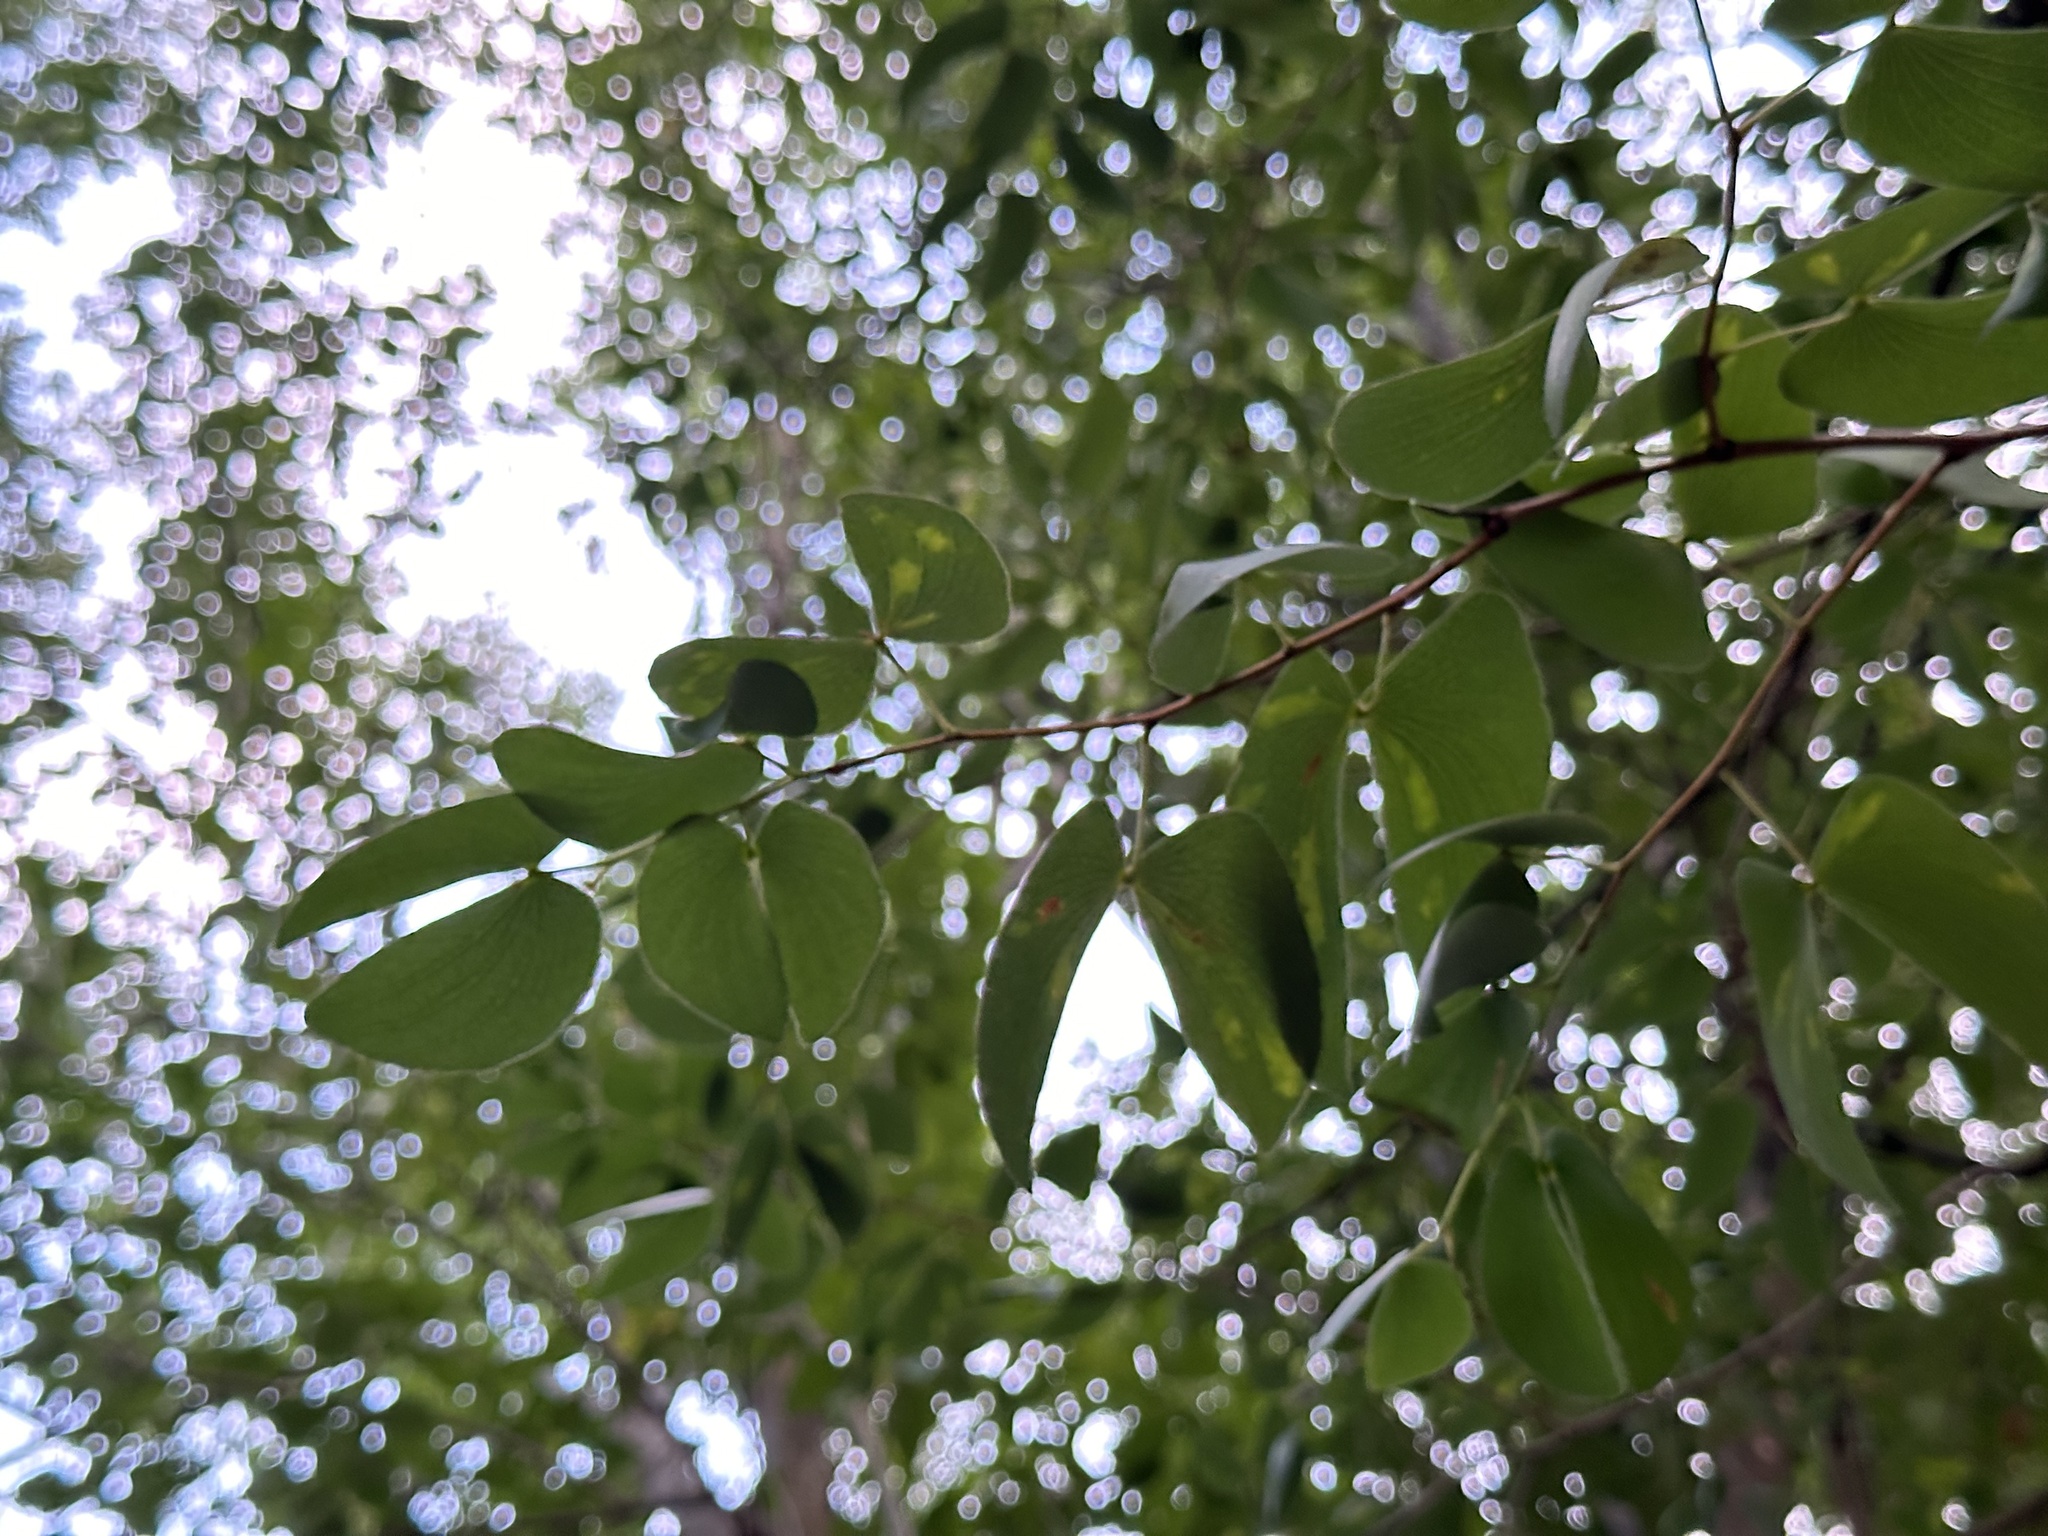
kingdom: Plantae
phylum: Tracheophyta
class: Magnoliopsida
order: Fabales
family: Fabaceae
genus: Colophospermum
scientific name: Colophospermum mopane
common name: Mopane
